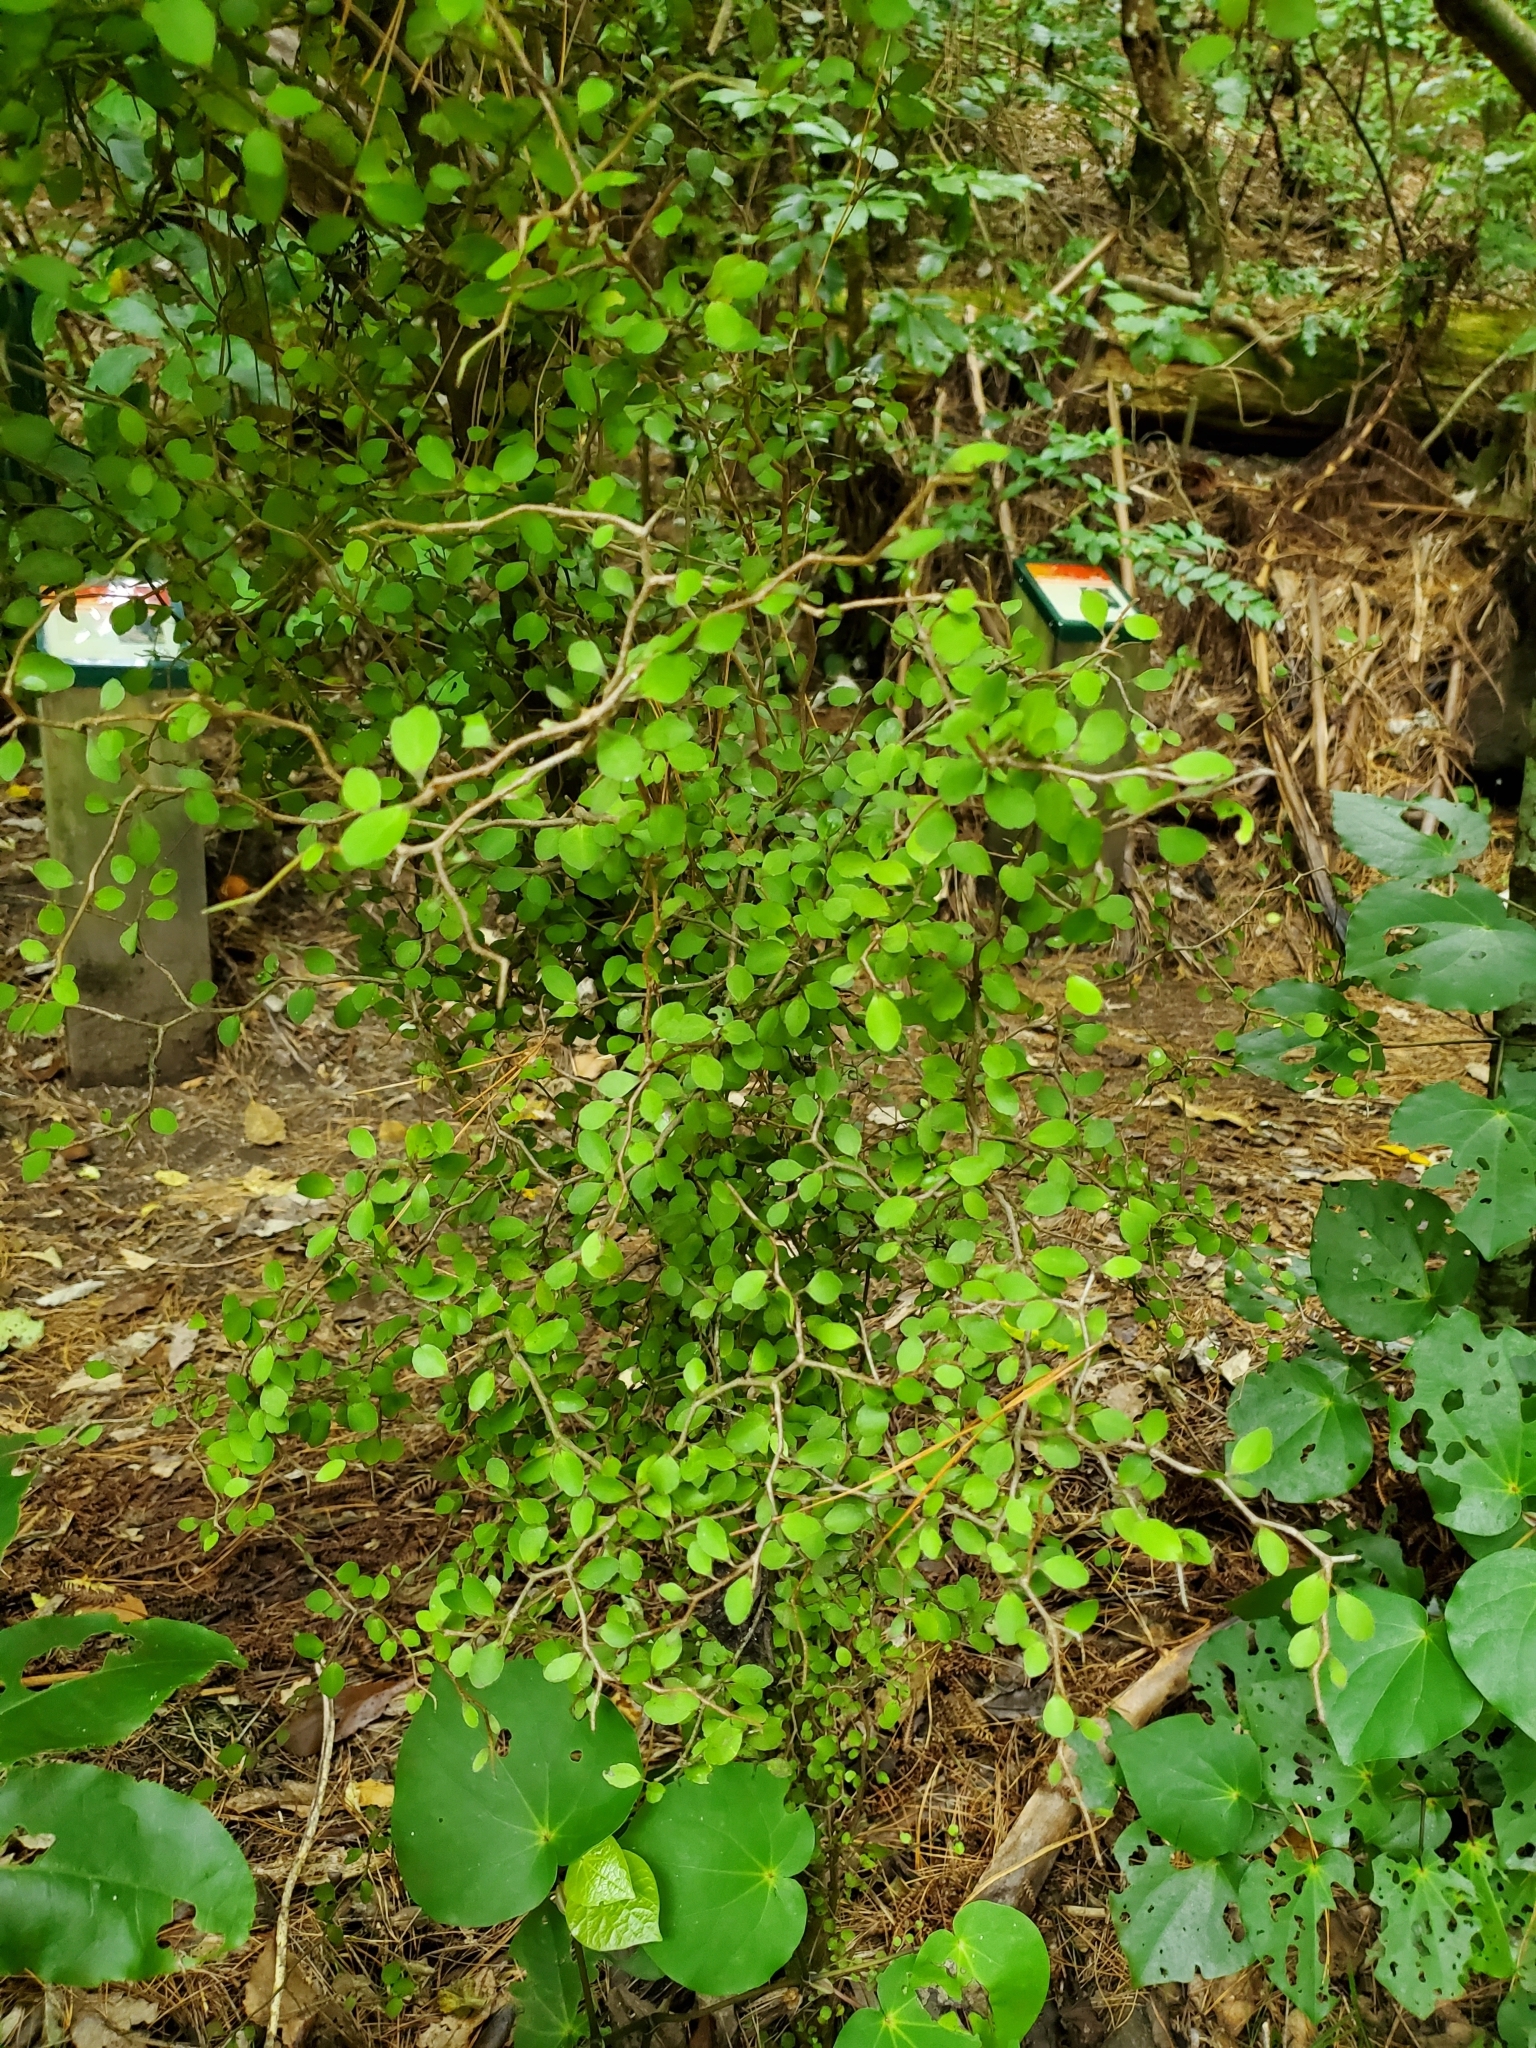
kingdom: Plantae
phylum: Tracheophyta
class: Magnoliopsida
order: Apiales
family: Araliaceae
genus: Raukaua
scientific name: Raukaua anomalus
